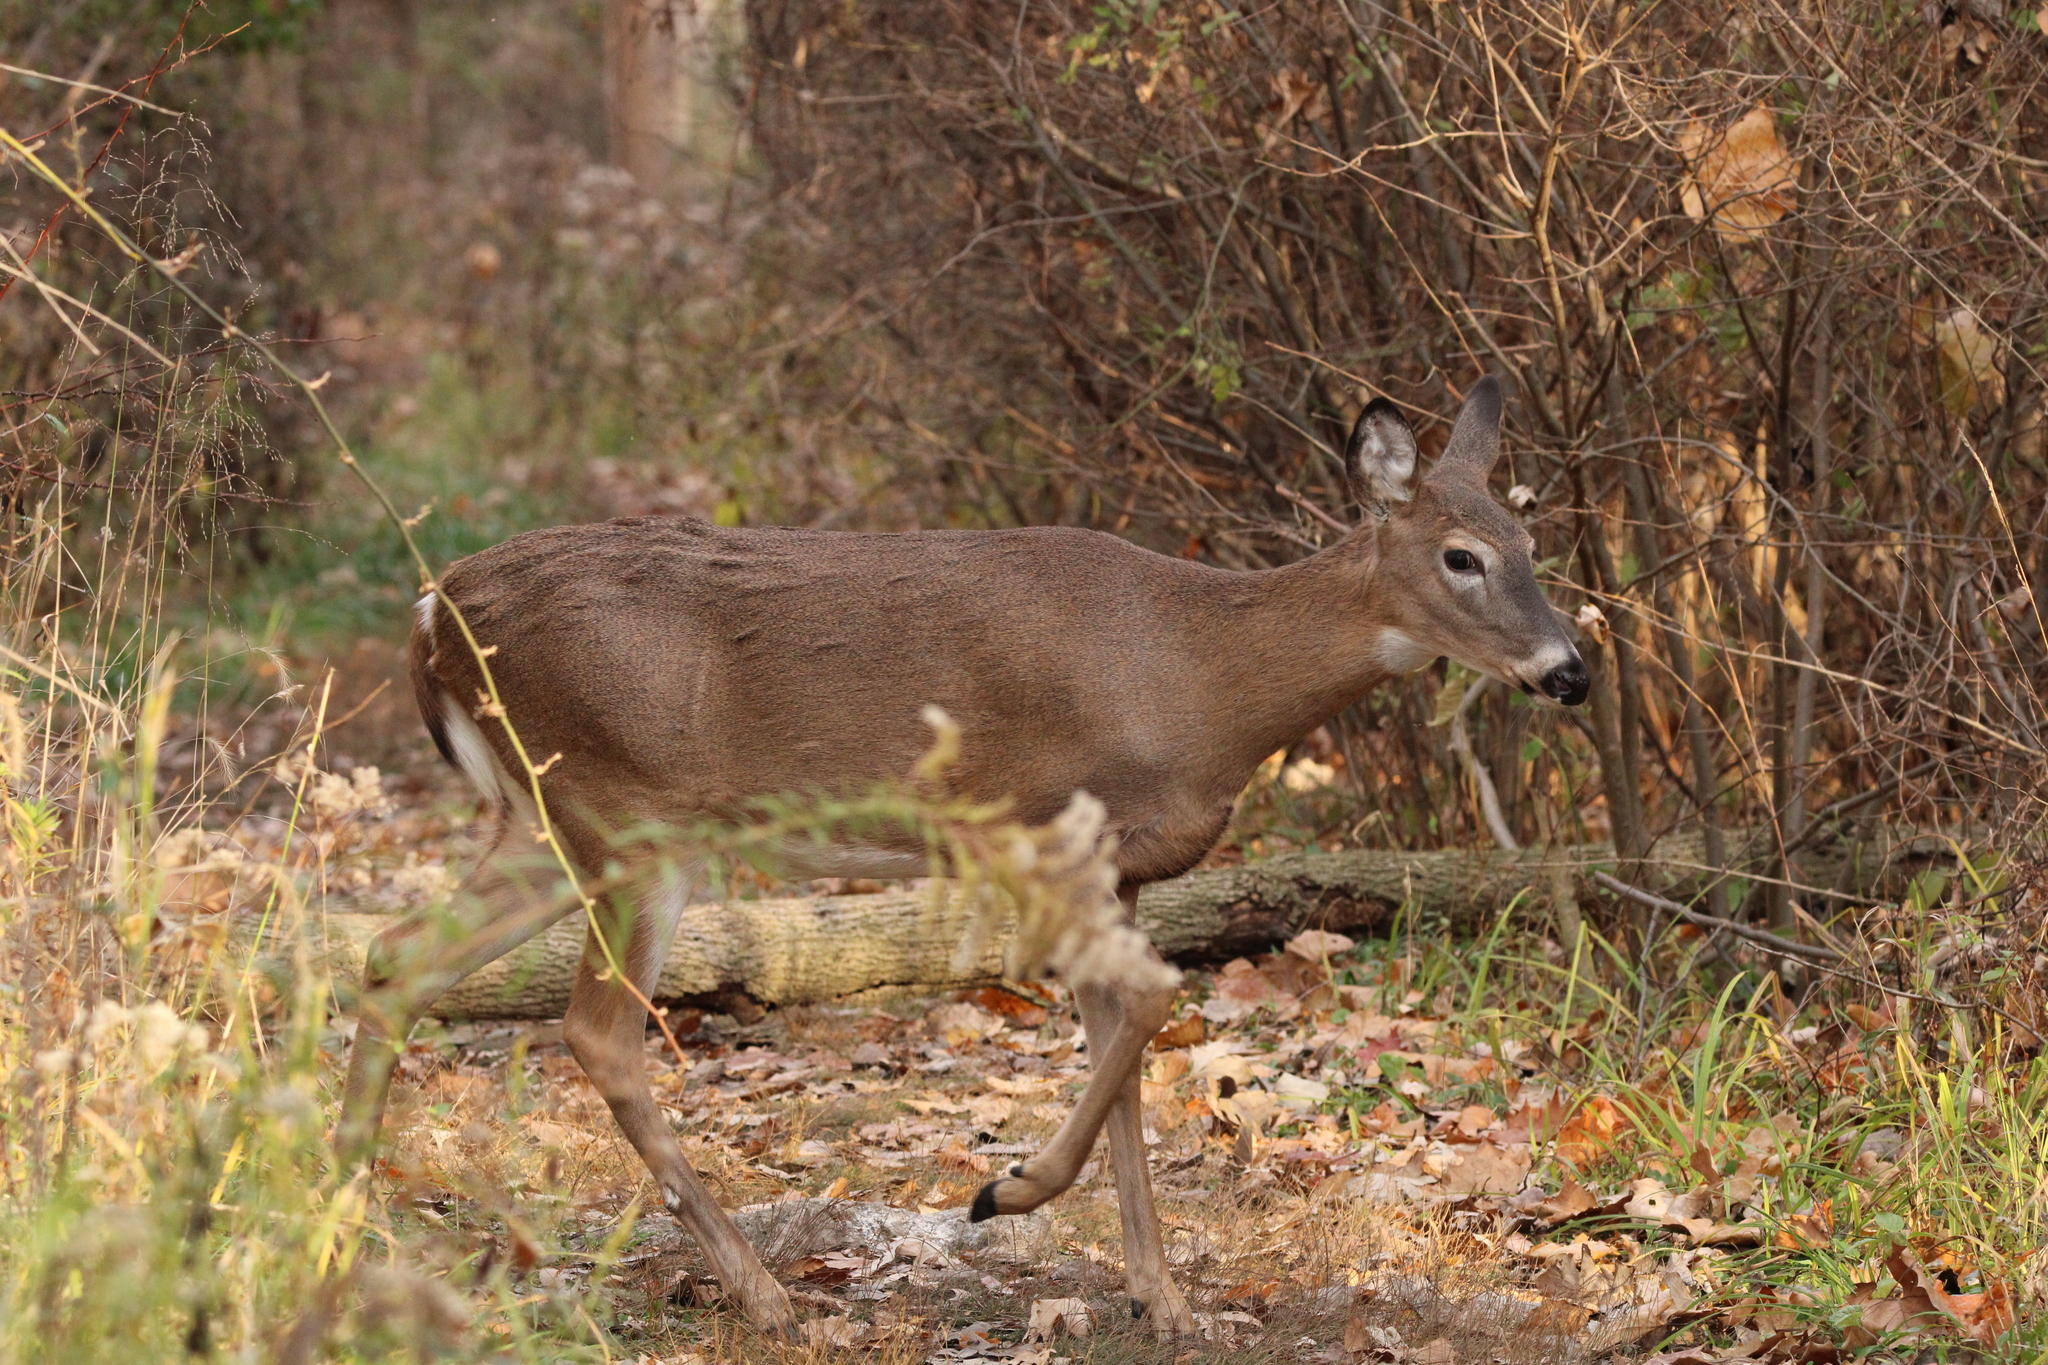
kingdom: Animalia
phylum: Chordata
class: Mammalia
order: Artiodactyla
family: Cervidae
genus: Odocoileus
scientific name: Odocoileus virginianus
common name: White-tailed deer
